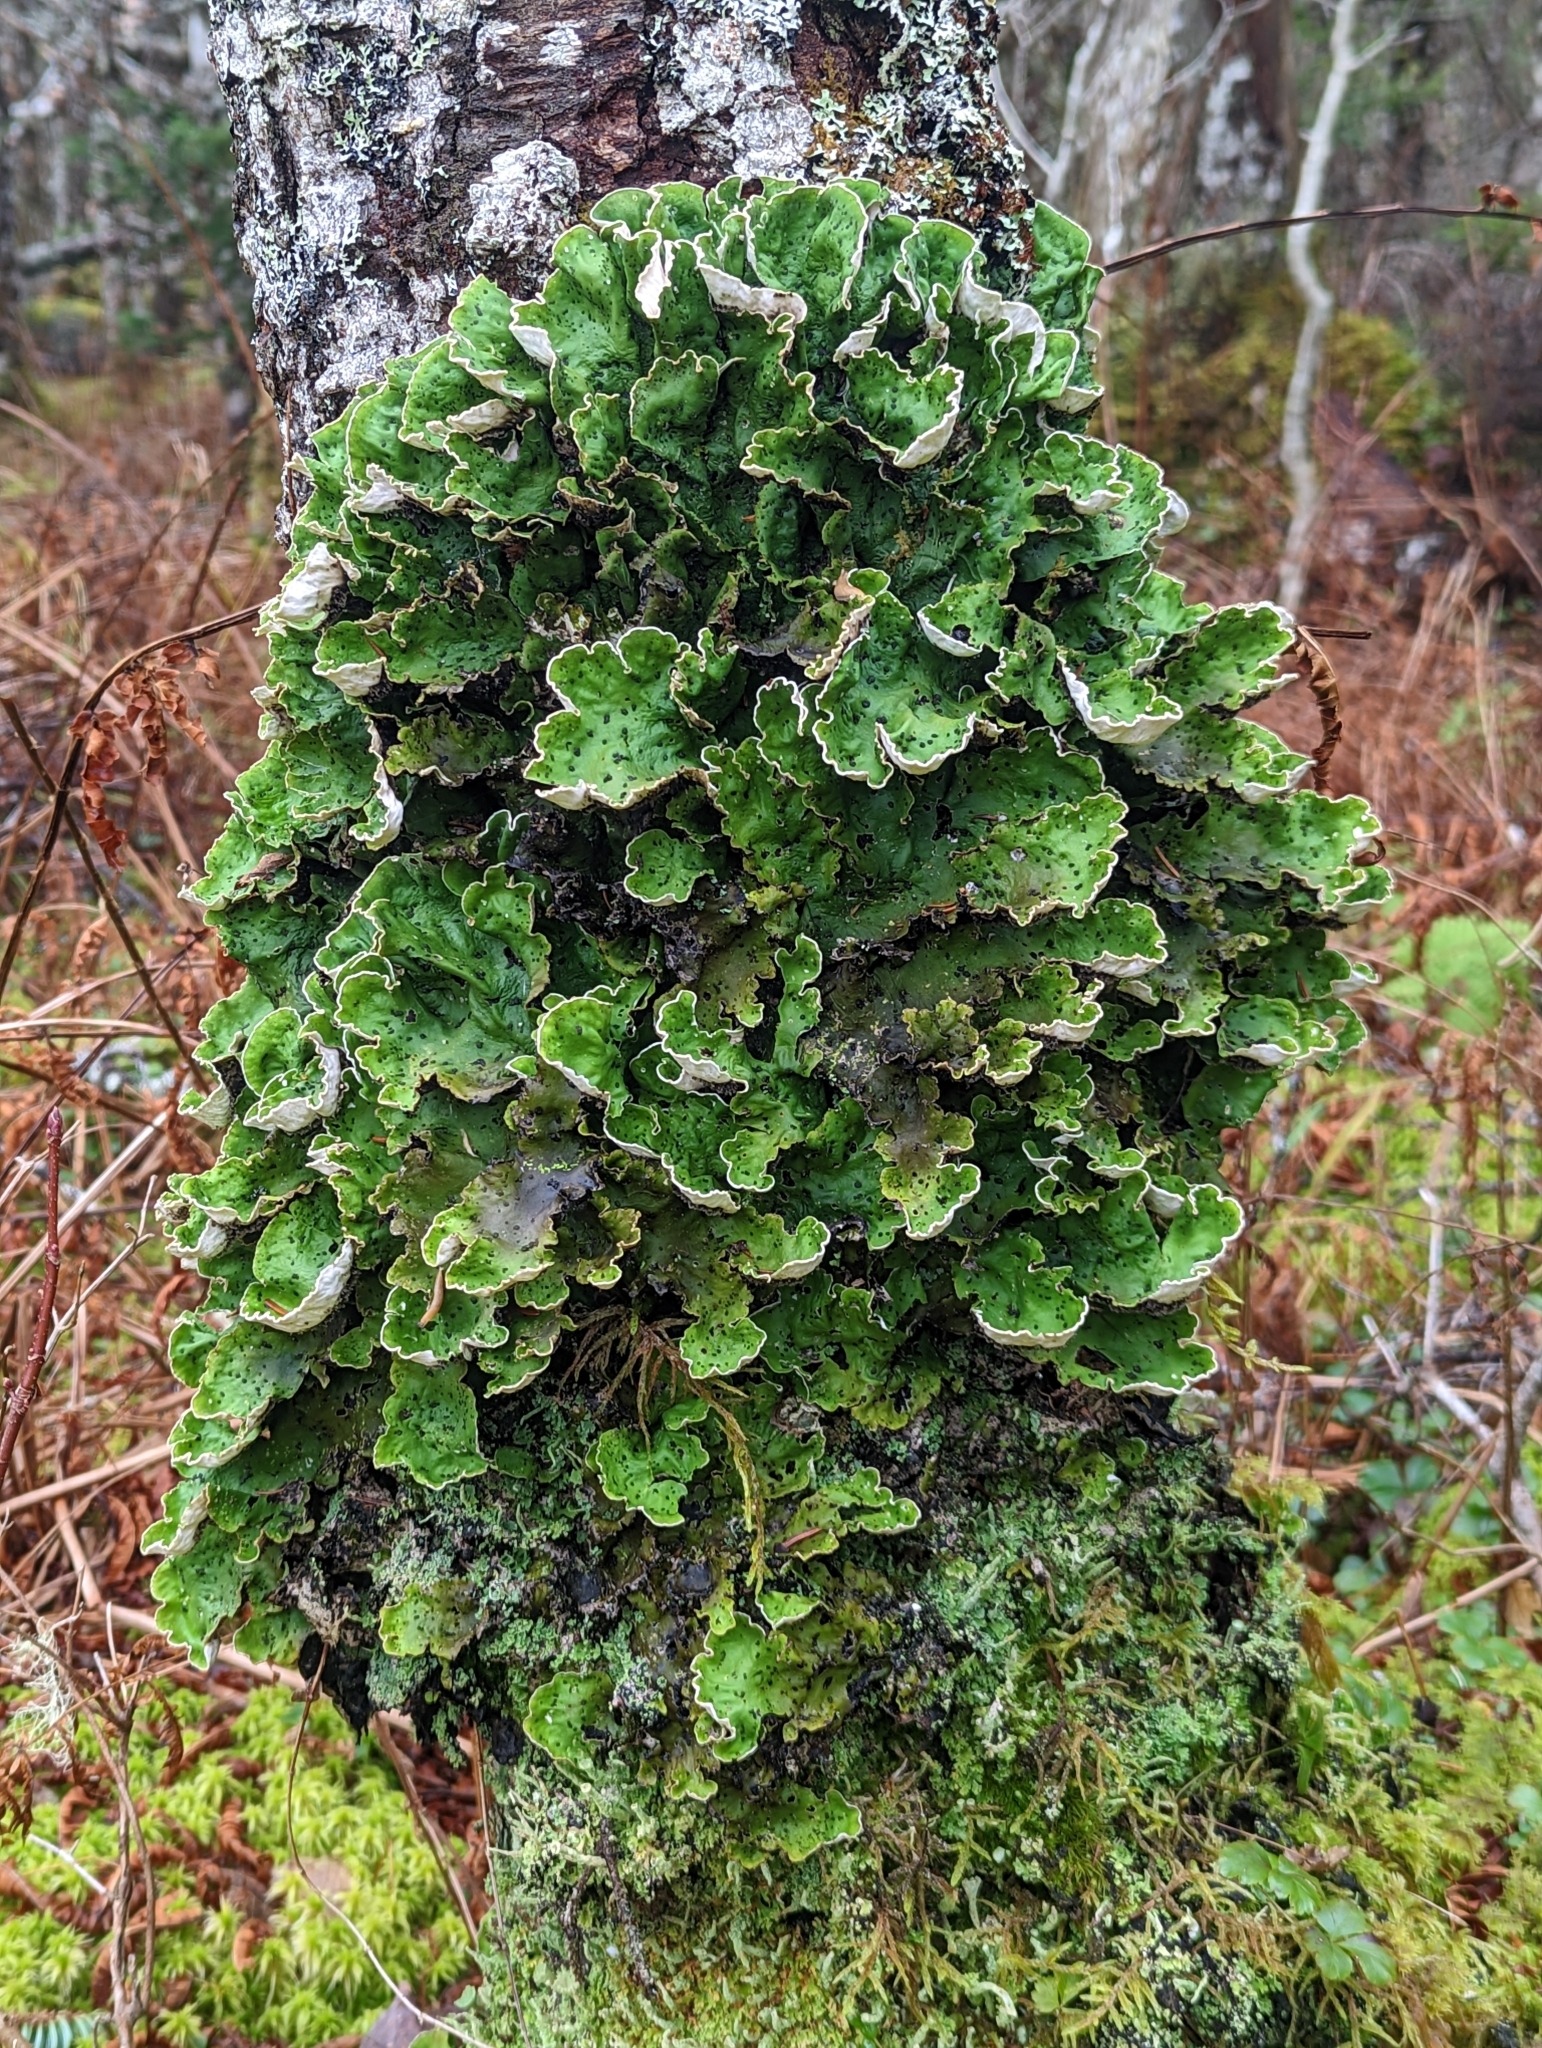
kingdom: Fungi
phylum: Ascomycota
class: Lecanoromycetes
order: Peltigerales
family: Peltigeraceae
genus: Peltigera
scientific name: Peltigera aphthosa
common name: Common freckle pelt lichen
